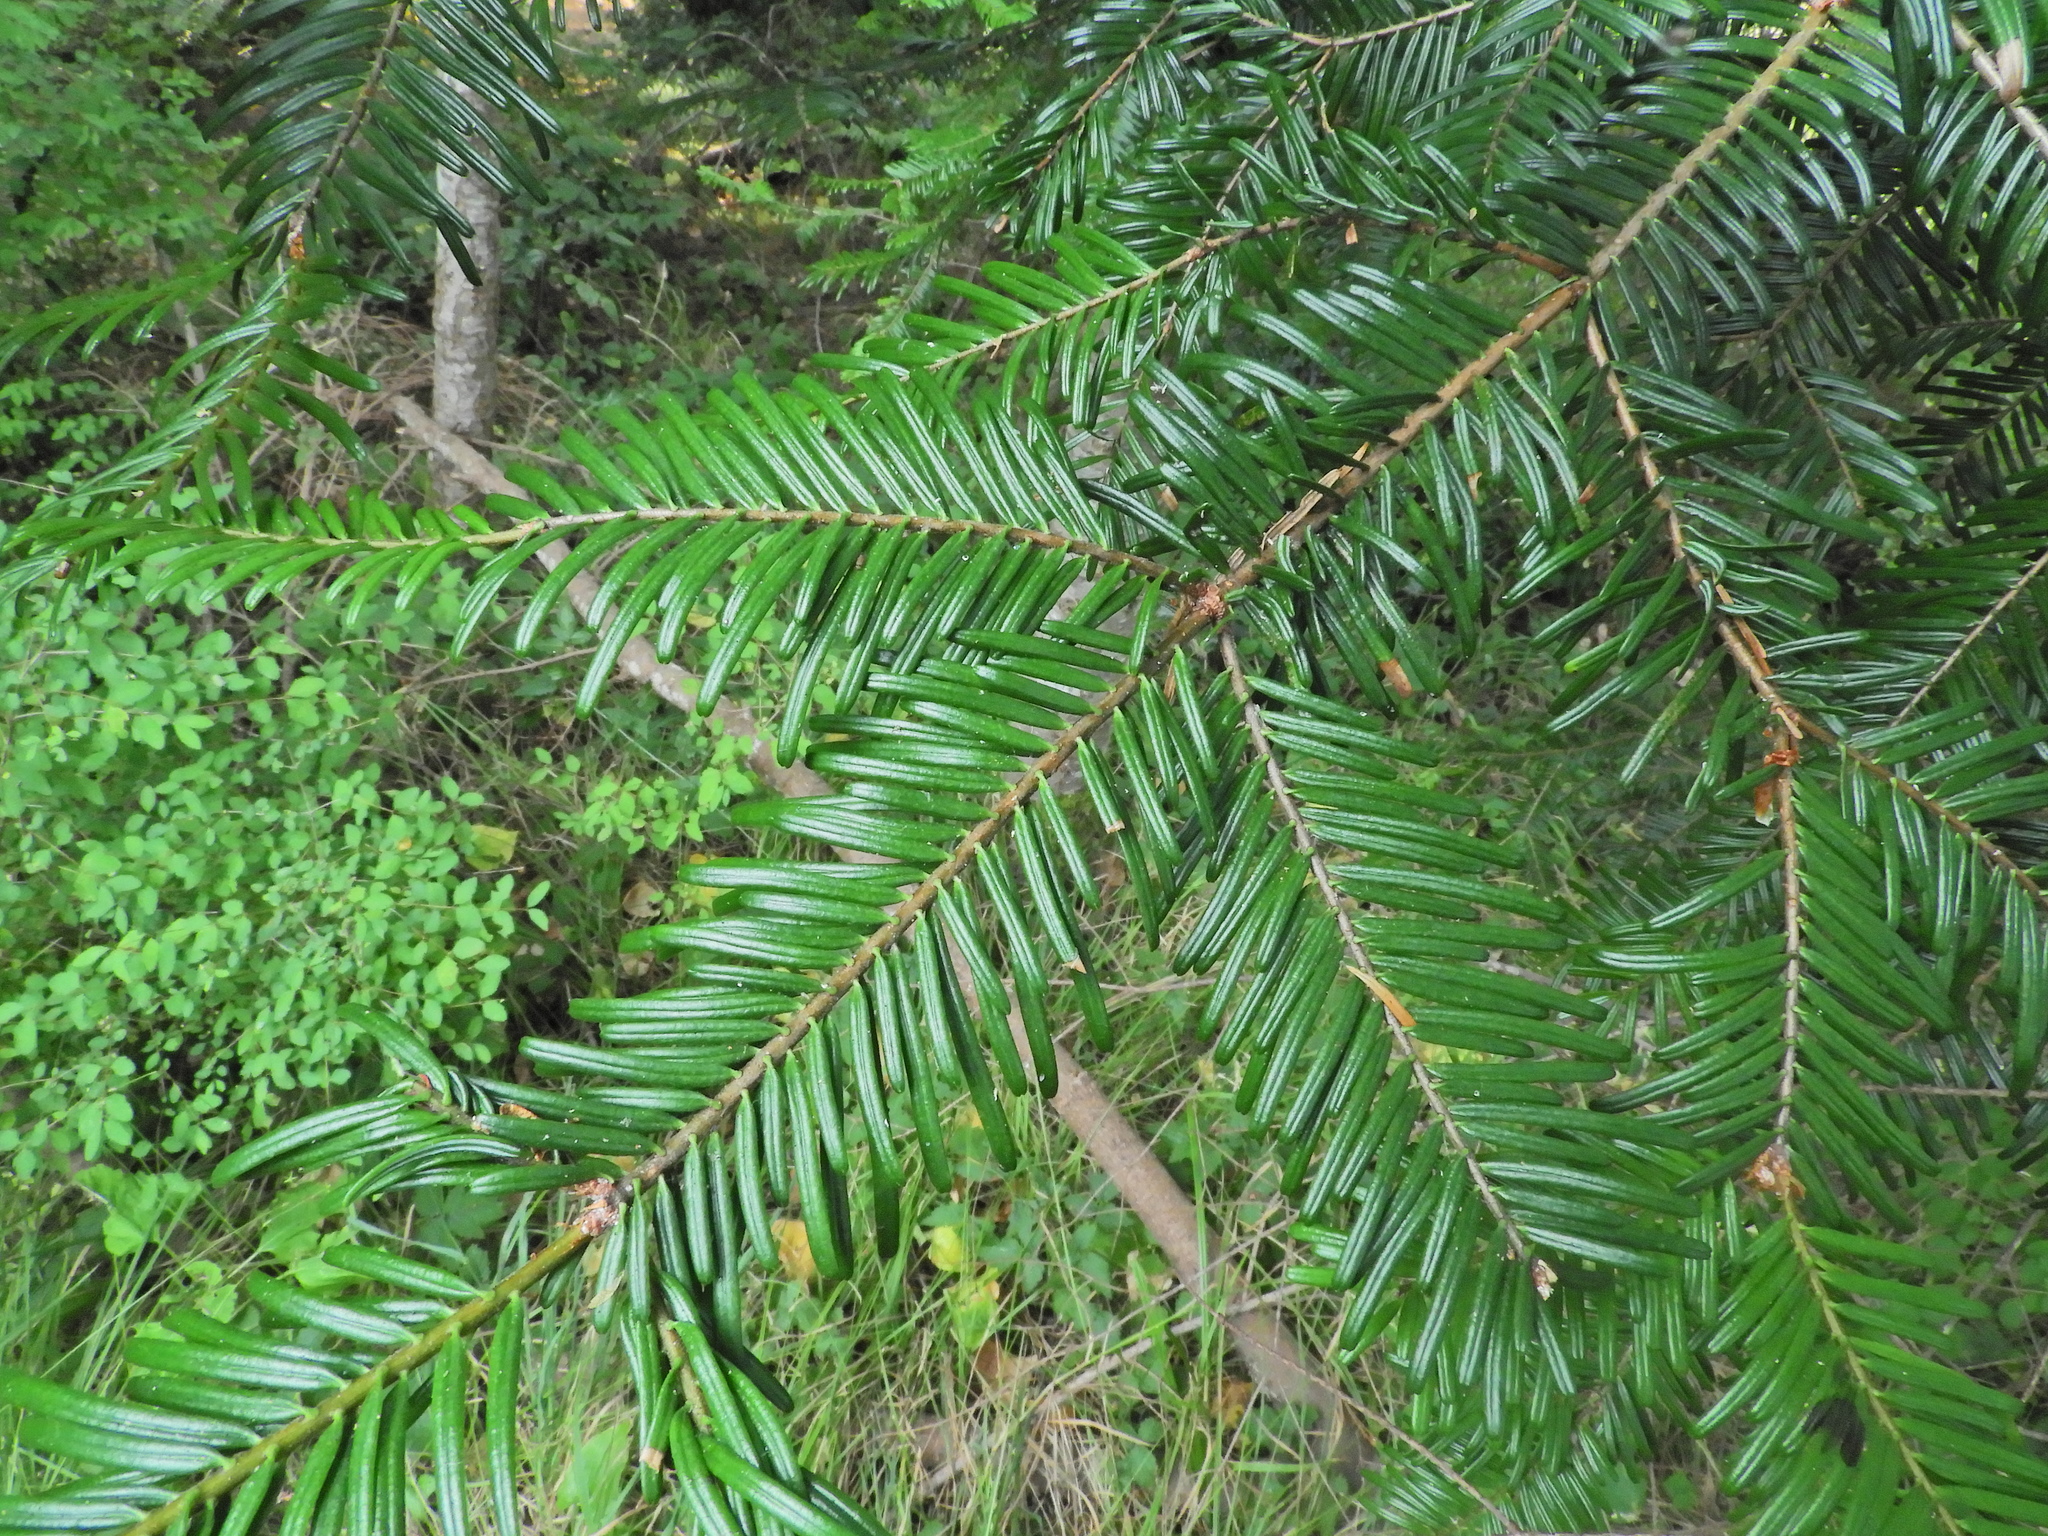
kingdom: Plantae
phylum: Tracheophyta
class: Pinopsida
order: Pinales
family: Pinaceae
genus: Abies
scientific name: Abies grandis
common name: Giant fir
